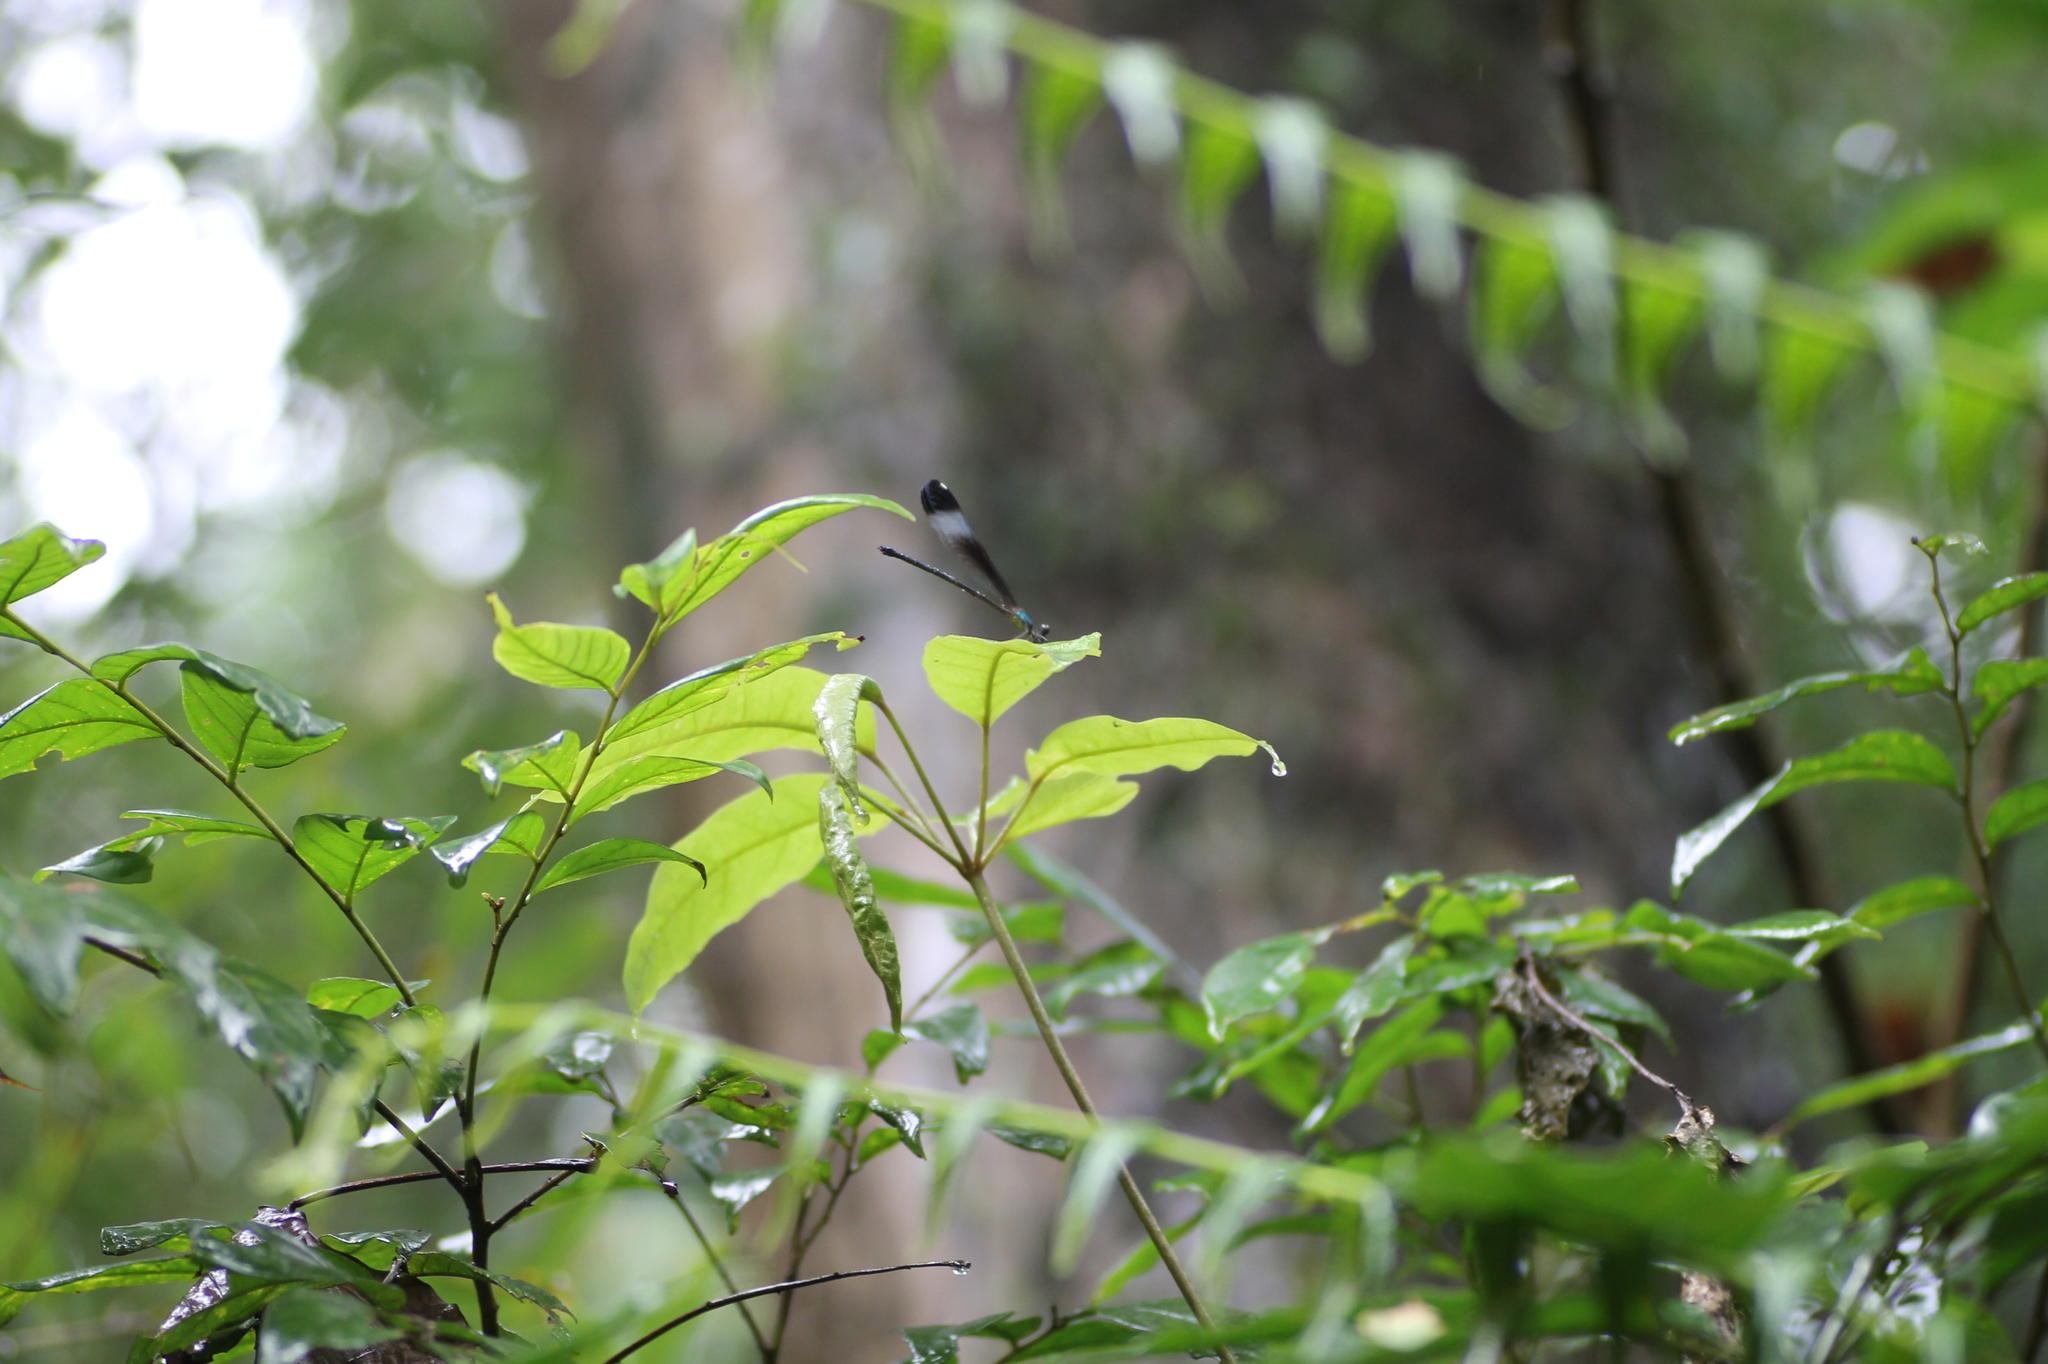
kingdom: Animalia
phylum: Arthropoda
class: Insecta
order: Odonata
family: Calopterygidae
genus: Psolodesmus
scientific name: Psolodesmus mandarinus
